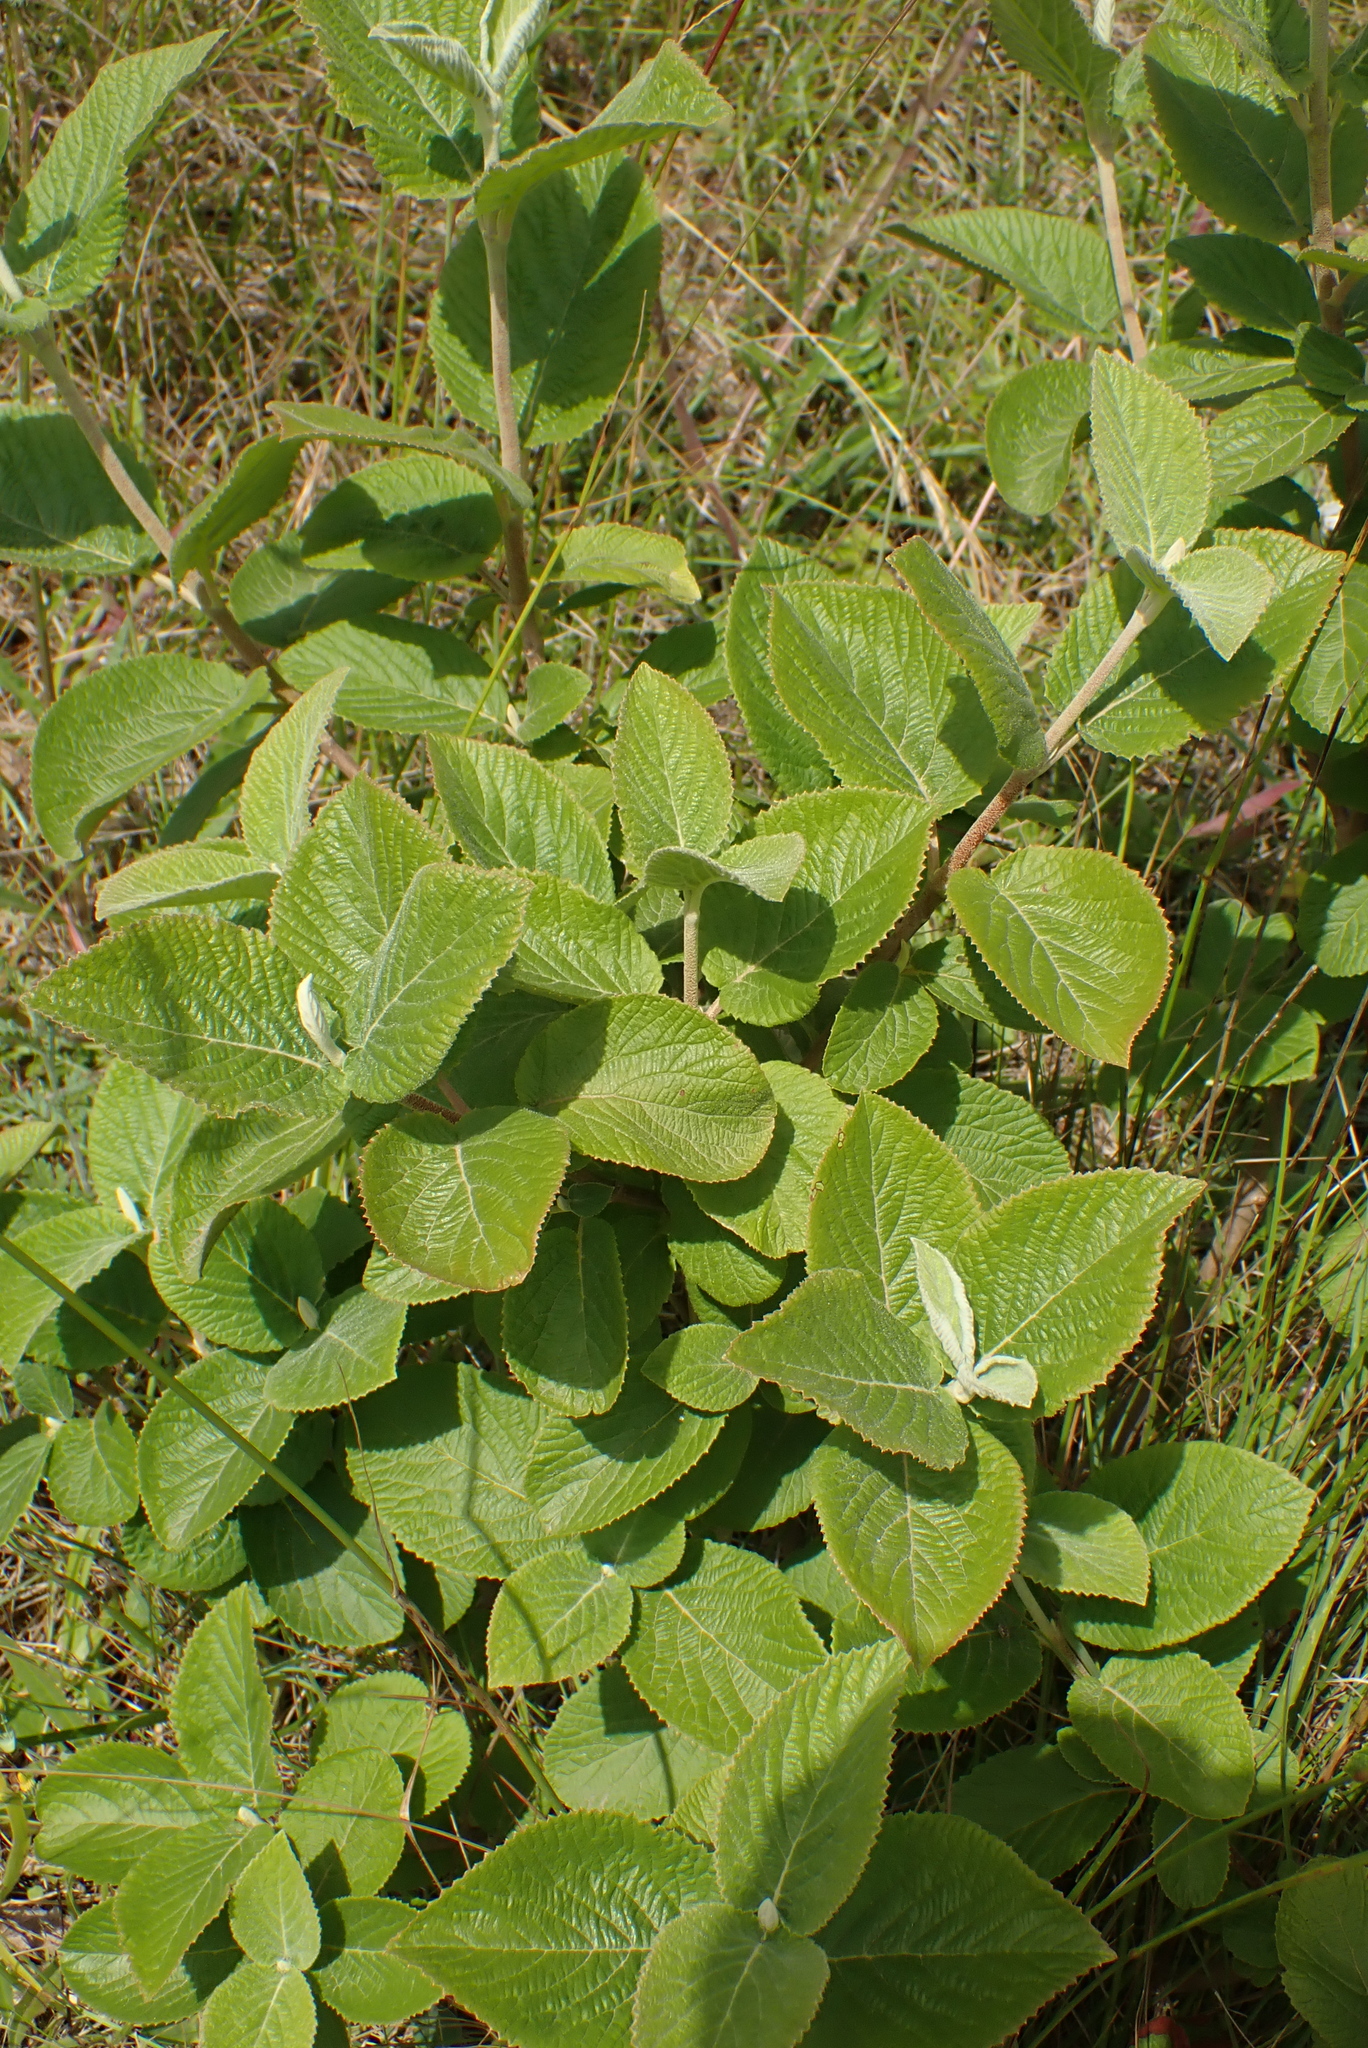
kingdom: Plantae
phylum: Tracheophyta
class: Magnoliopsida
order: Dipsacales
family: Viburnaceae
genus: Viburnum
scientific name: Viburnum lantana
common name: Wayfaring tree
